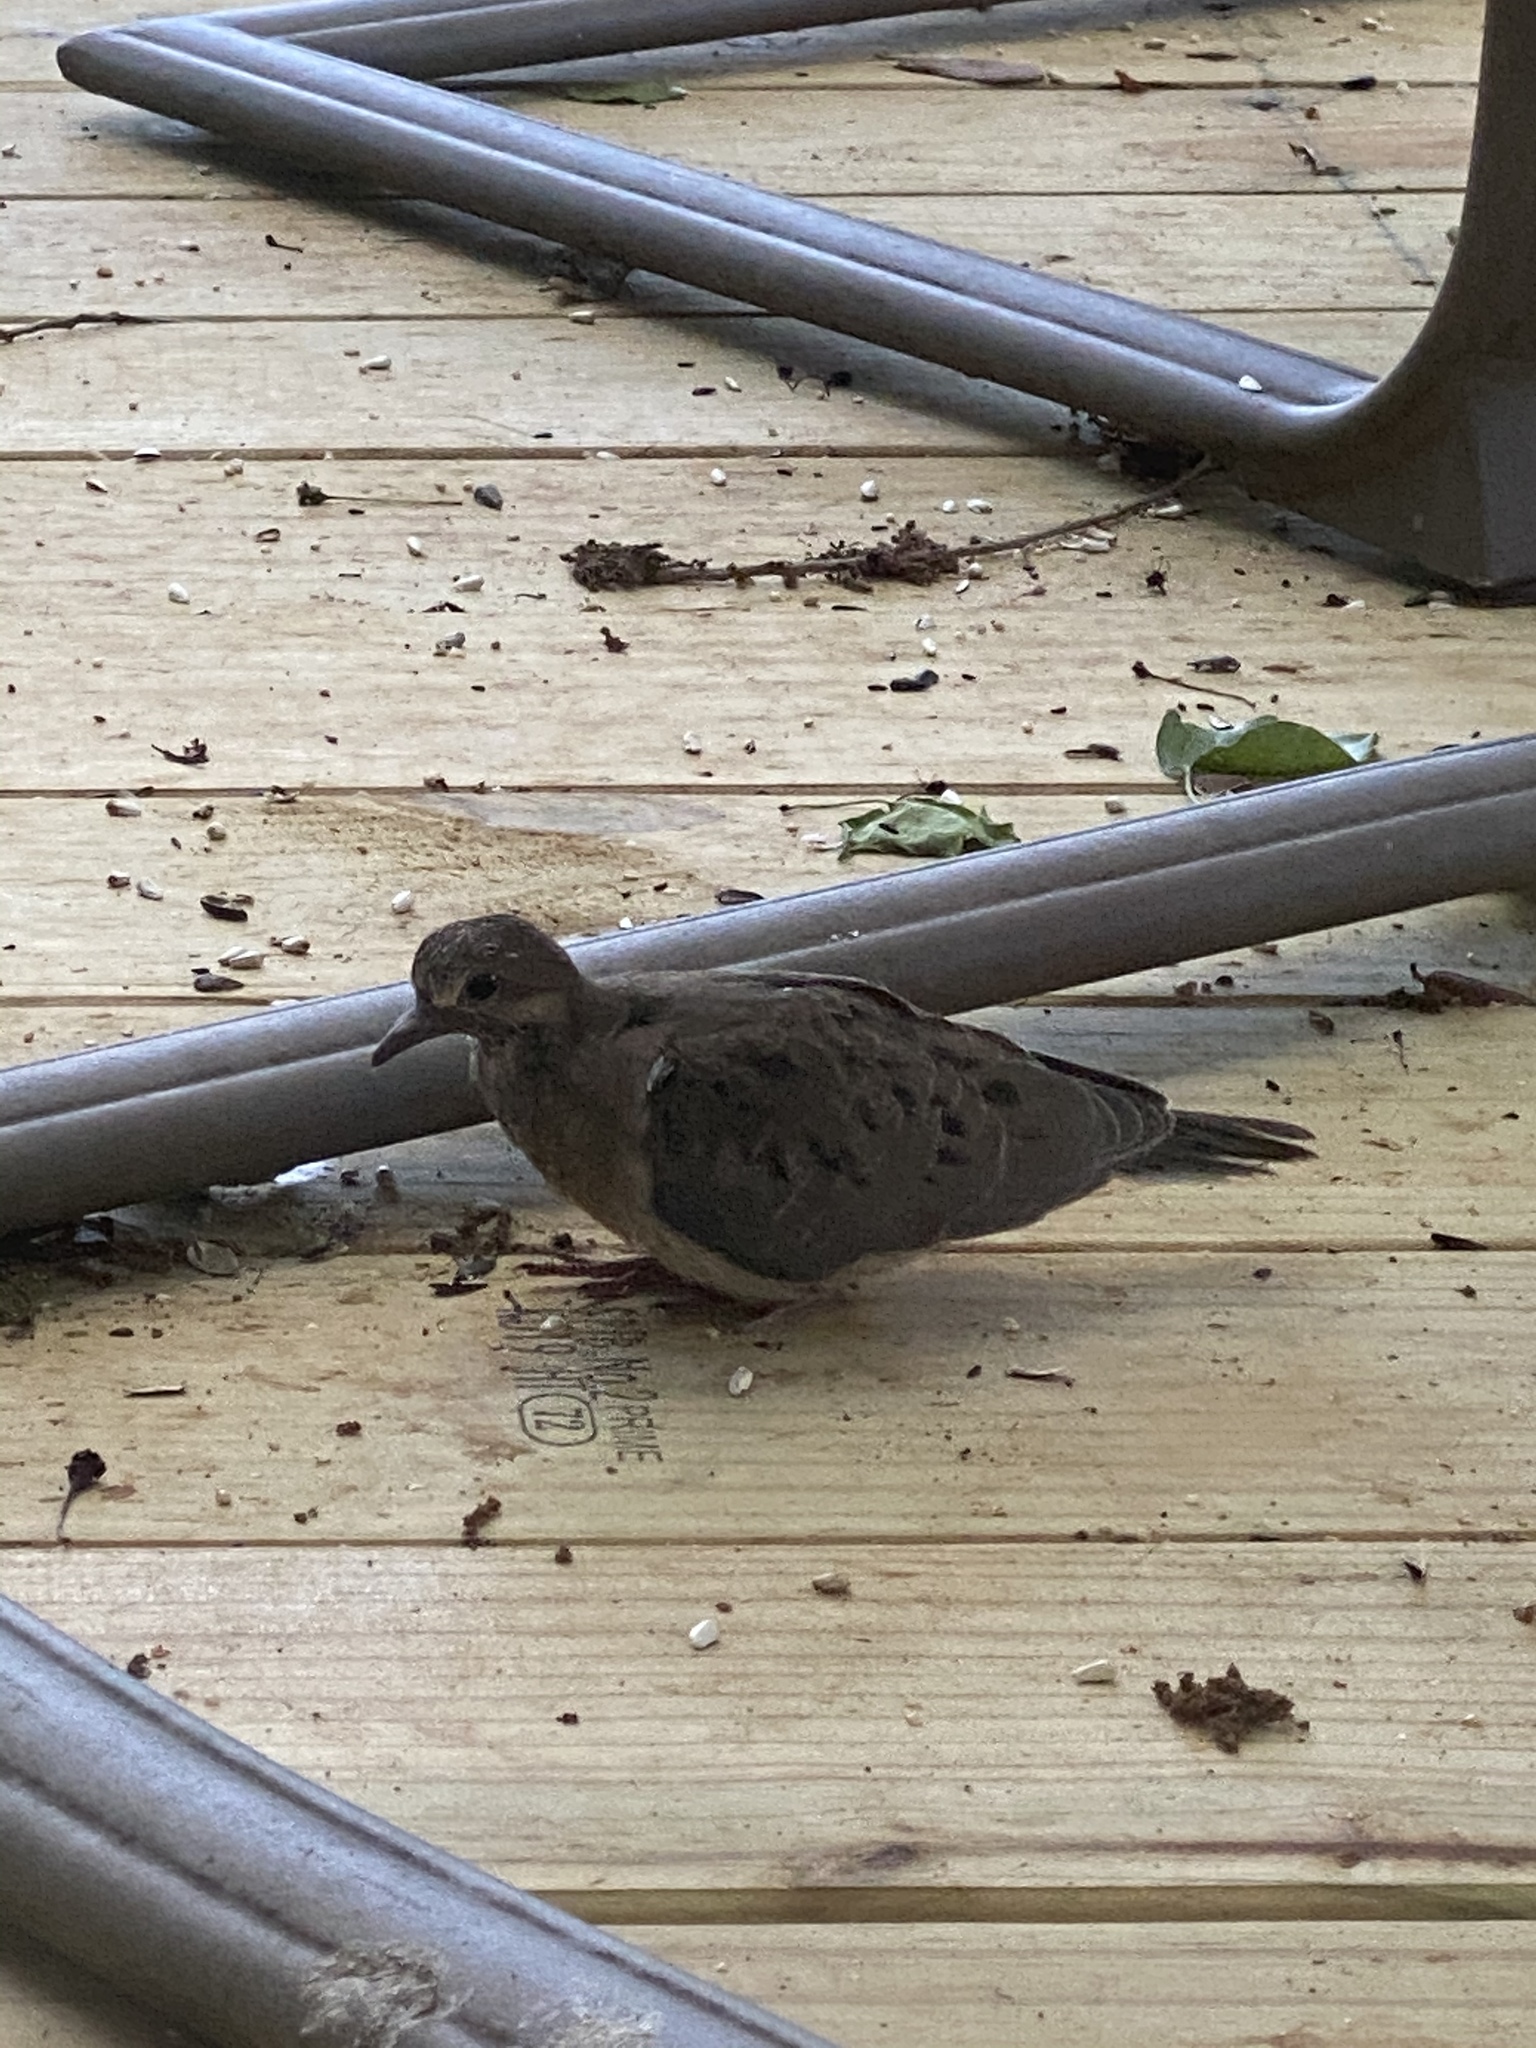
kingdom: Animalia
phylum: Chordata
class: Aves
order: Columbiformes
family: Columbidae
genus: Zenaida
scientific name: Zenaida macroura
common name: Mourning dove
